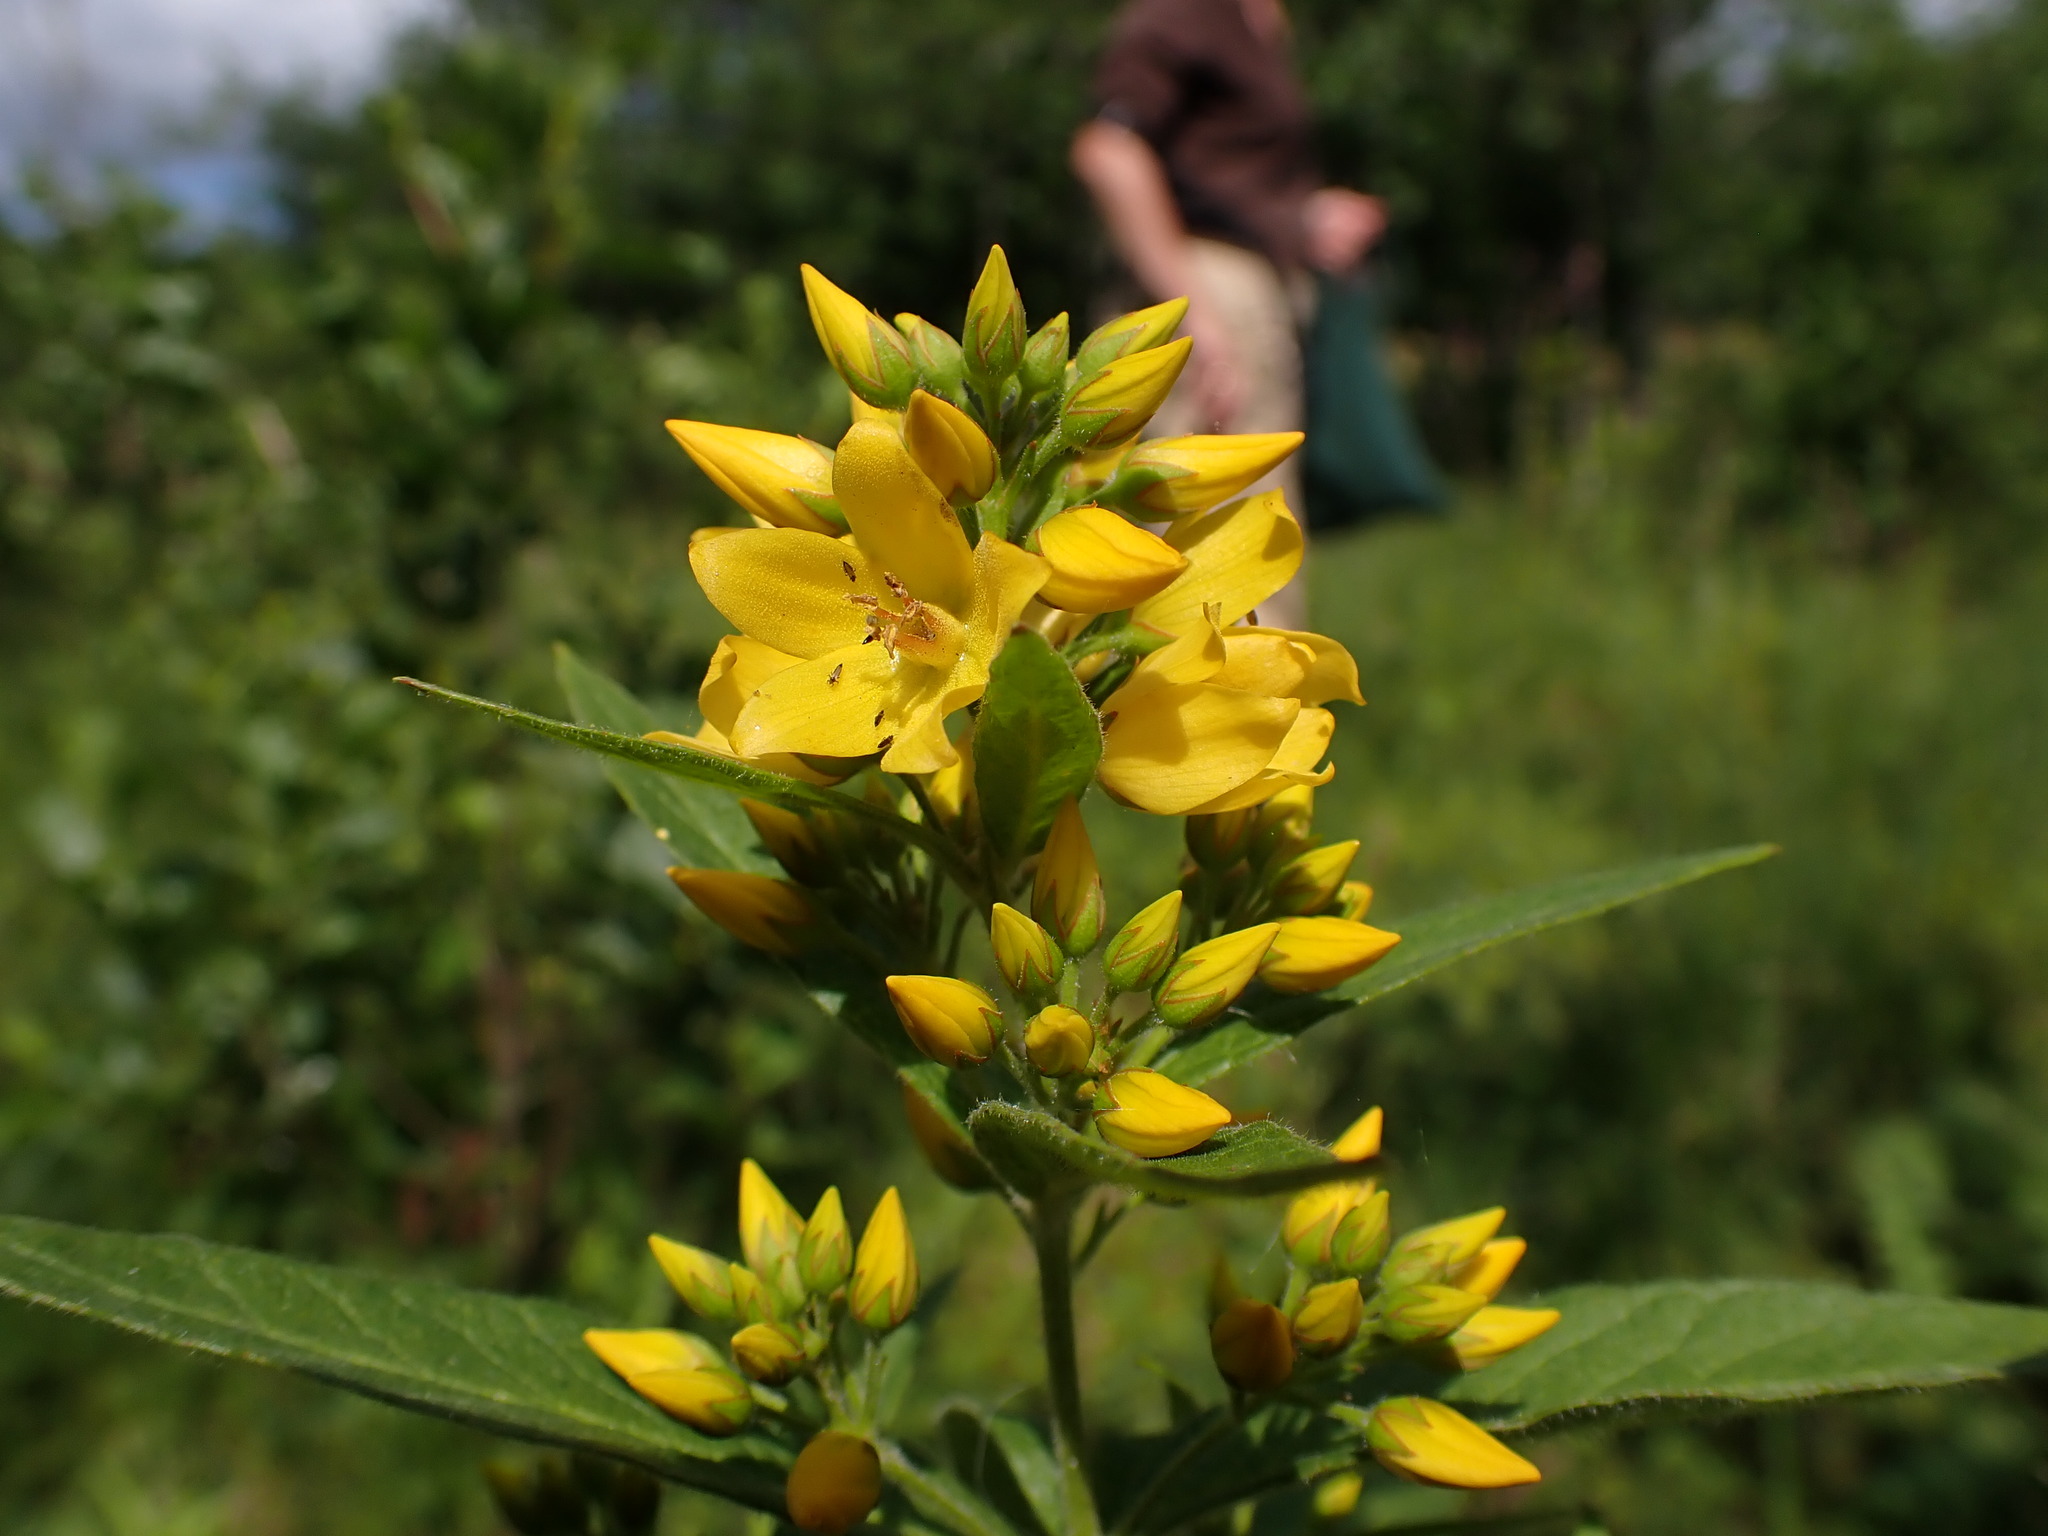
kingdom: Plantae
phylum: Tracheophyta
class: Magnoliopsida
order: Ericales
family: Primulaceae
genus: Lysimachia
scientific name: Lysimachia vulgaris
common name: Yellow loosestrife
